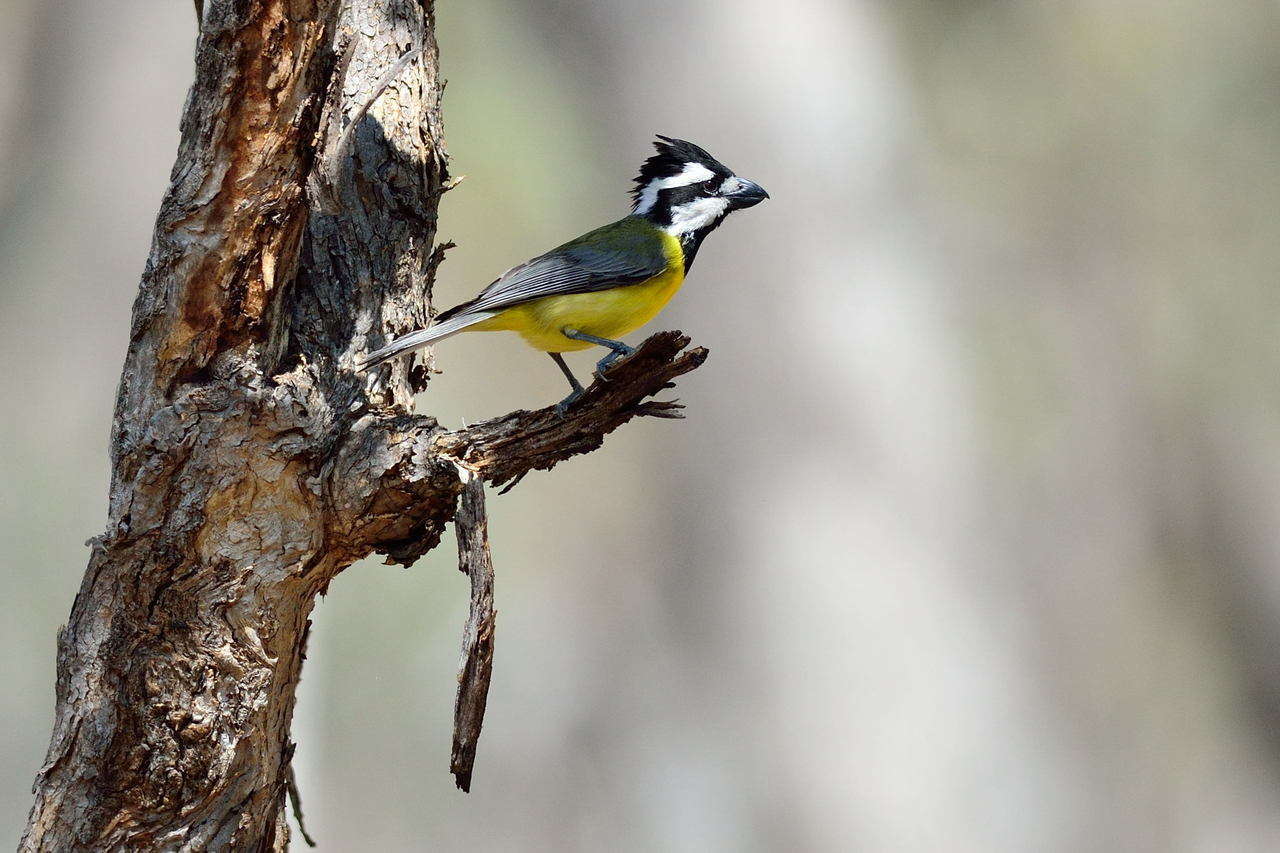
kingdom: Animalia
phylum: Chordata
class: Aves
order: Passeriformes
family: Pachycephalidae
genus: Falcunculus
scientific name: Falcunculus frontatus
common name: Crested shriketit
